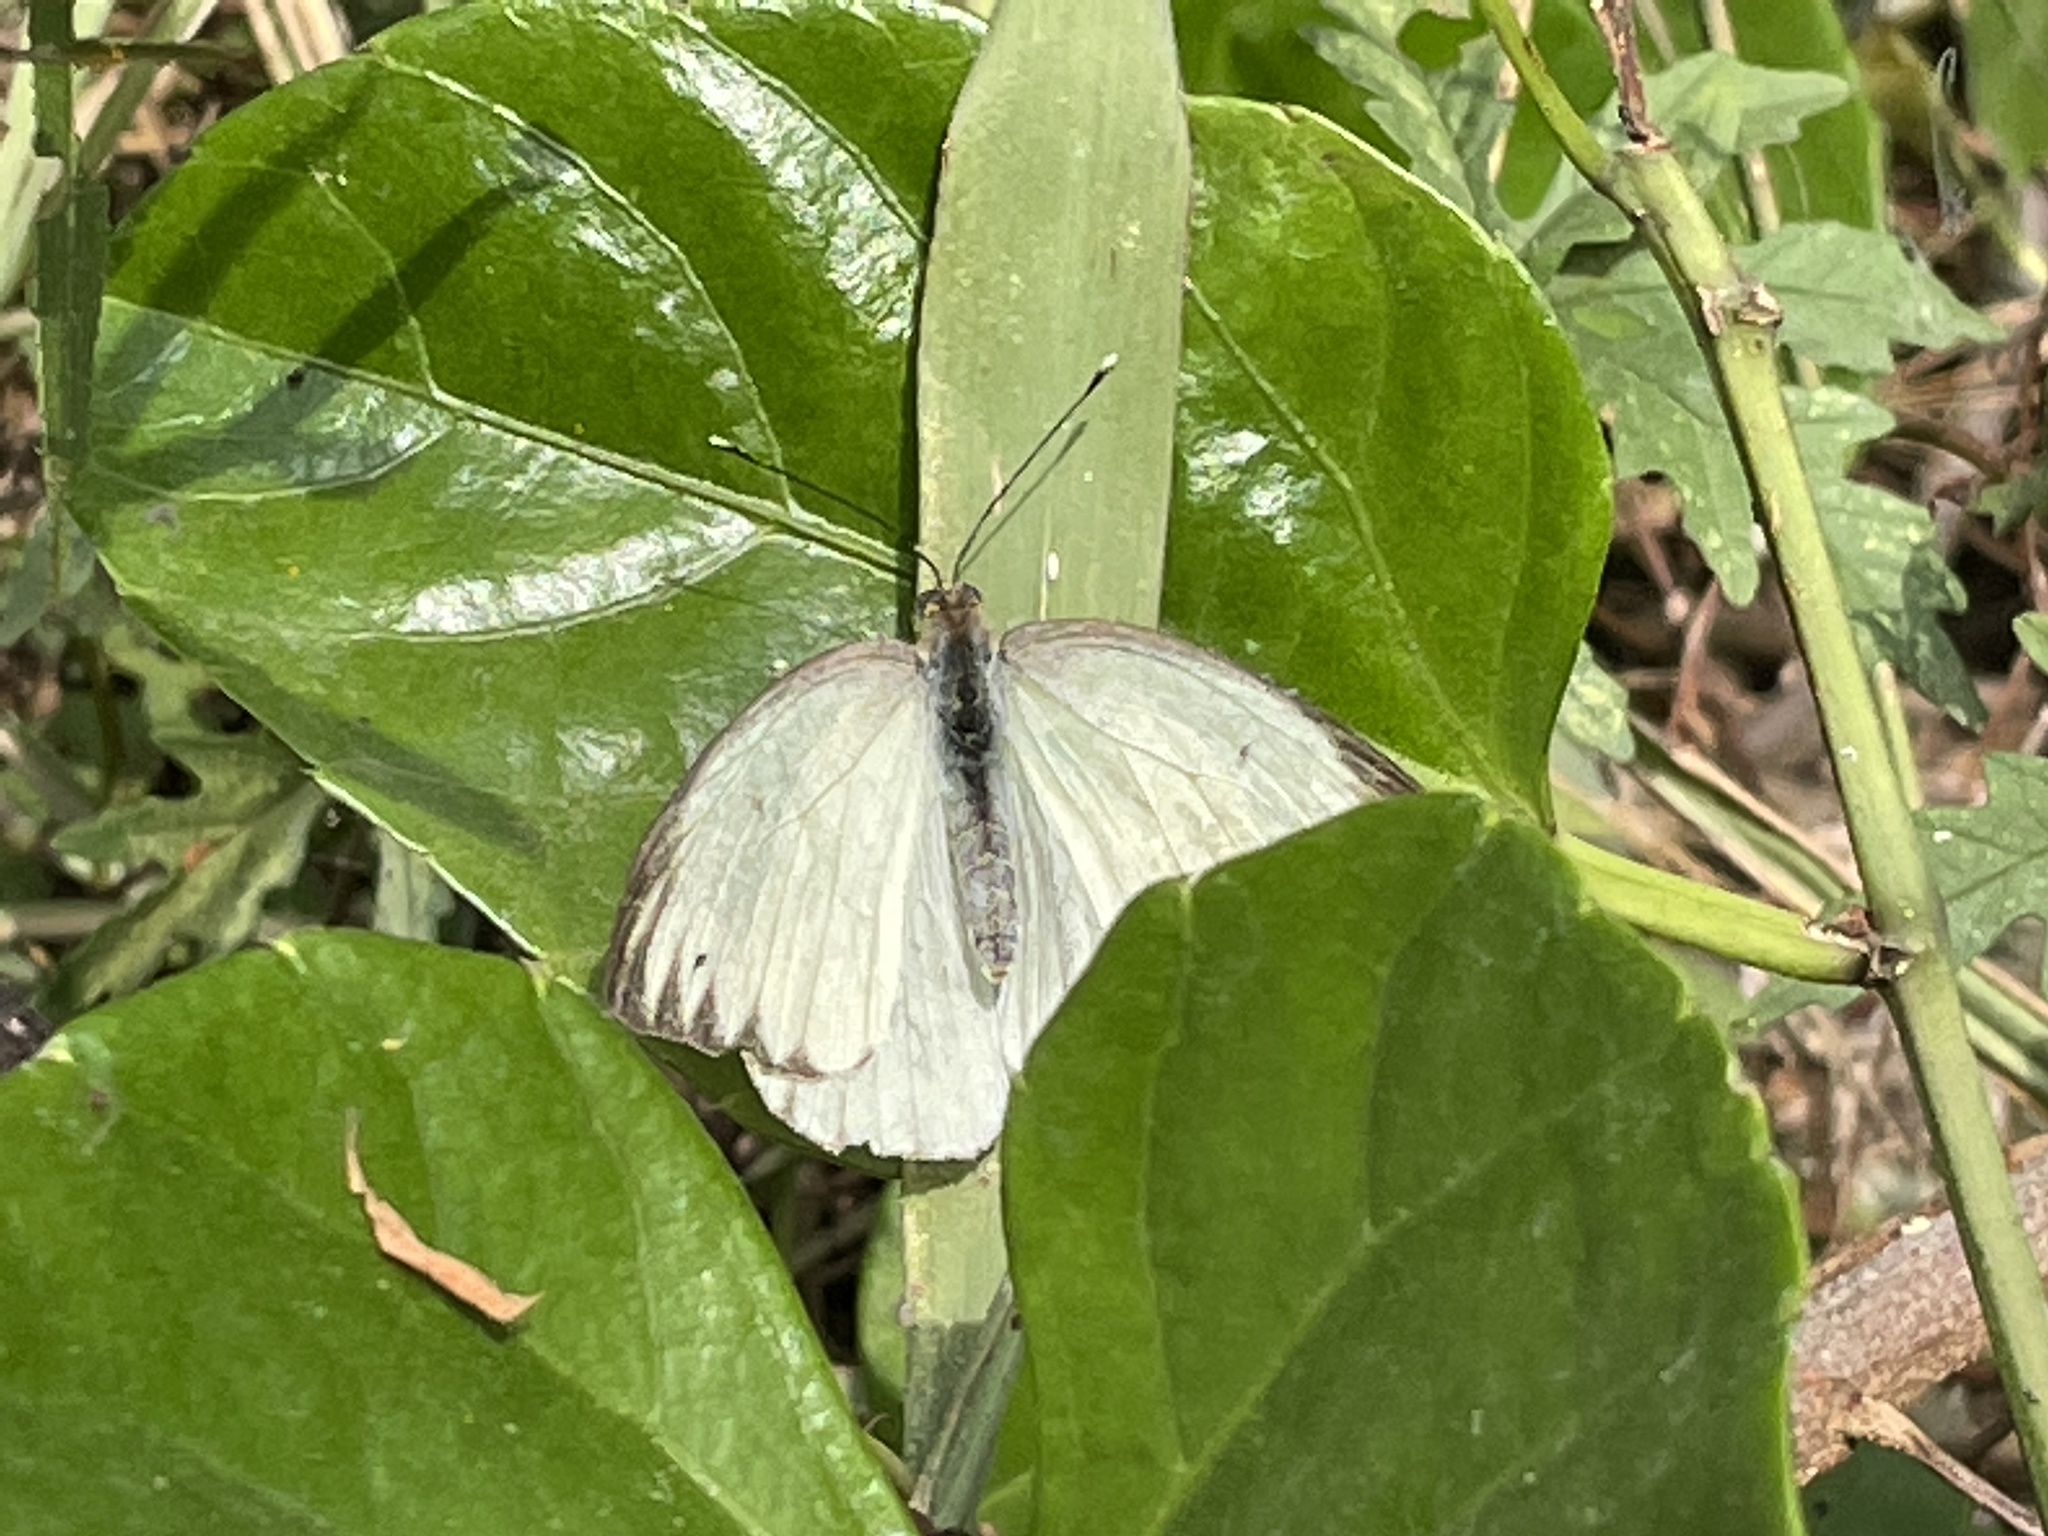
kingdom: Animalia
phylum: Arthropoda
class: Insecta
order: Lepidoptera
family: Pieridae
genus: Ascia
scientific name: Ascia monuste
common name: Great southern white
